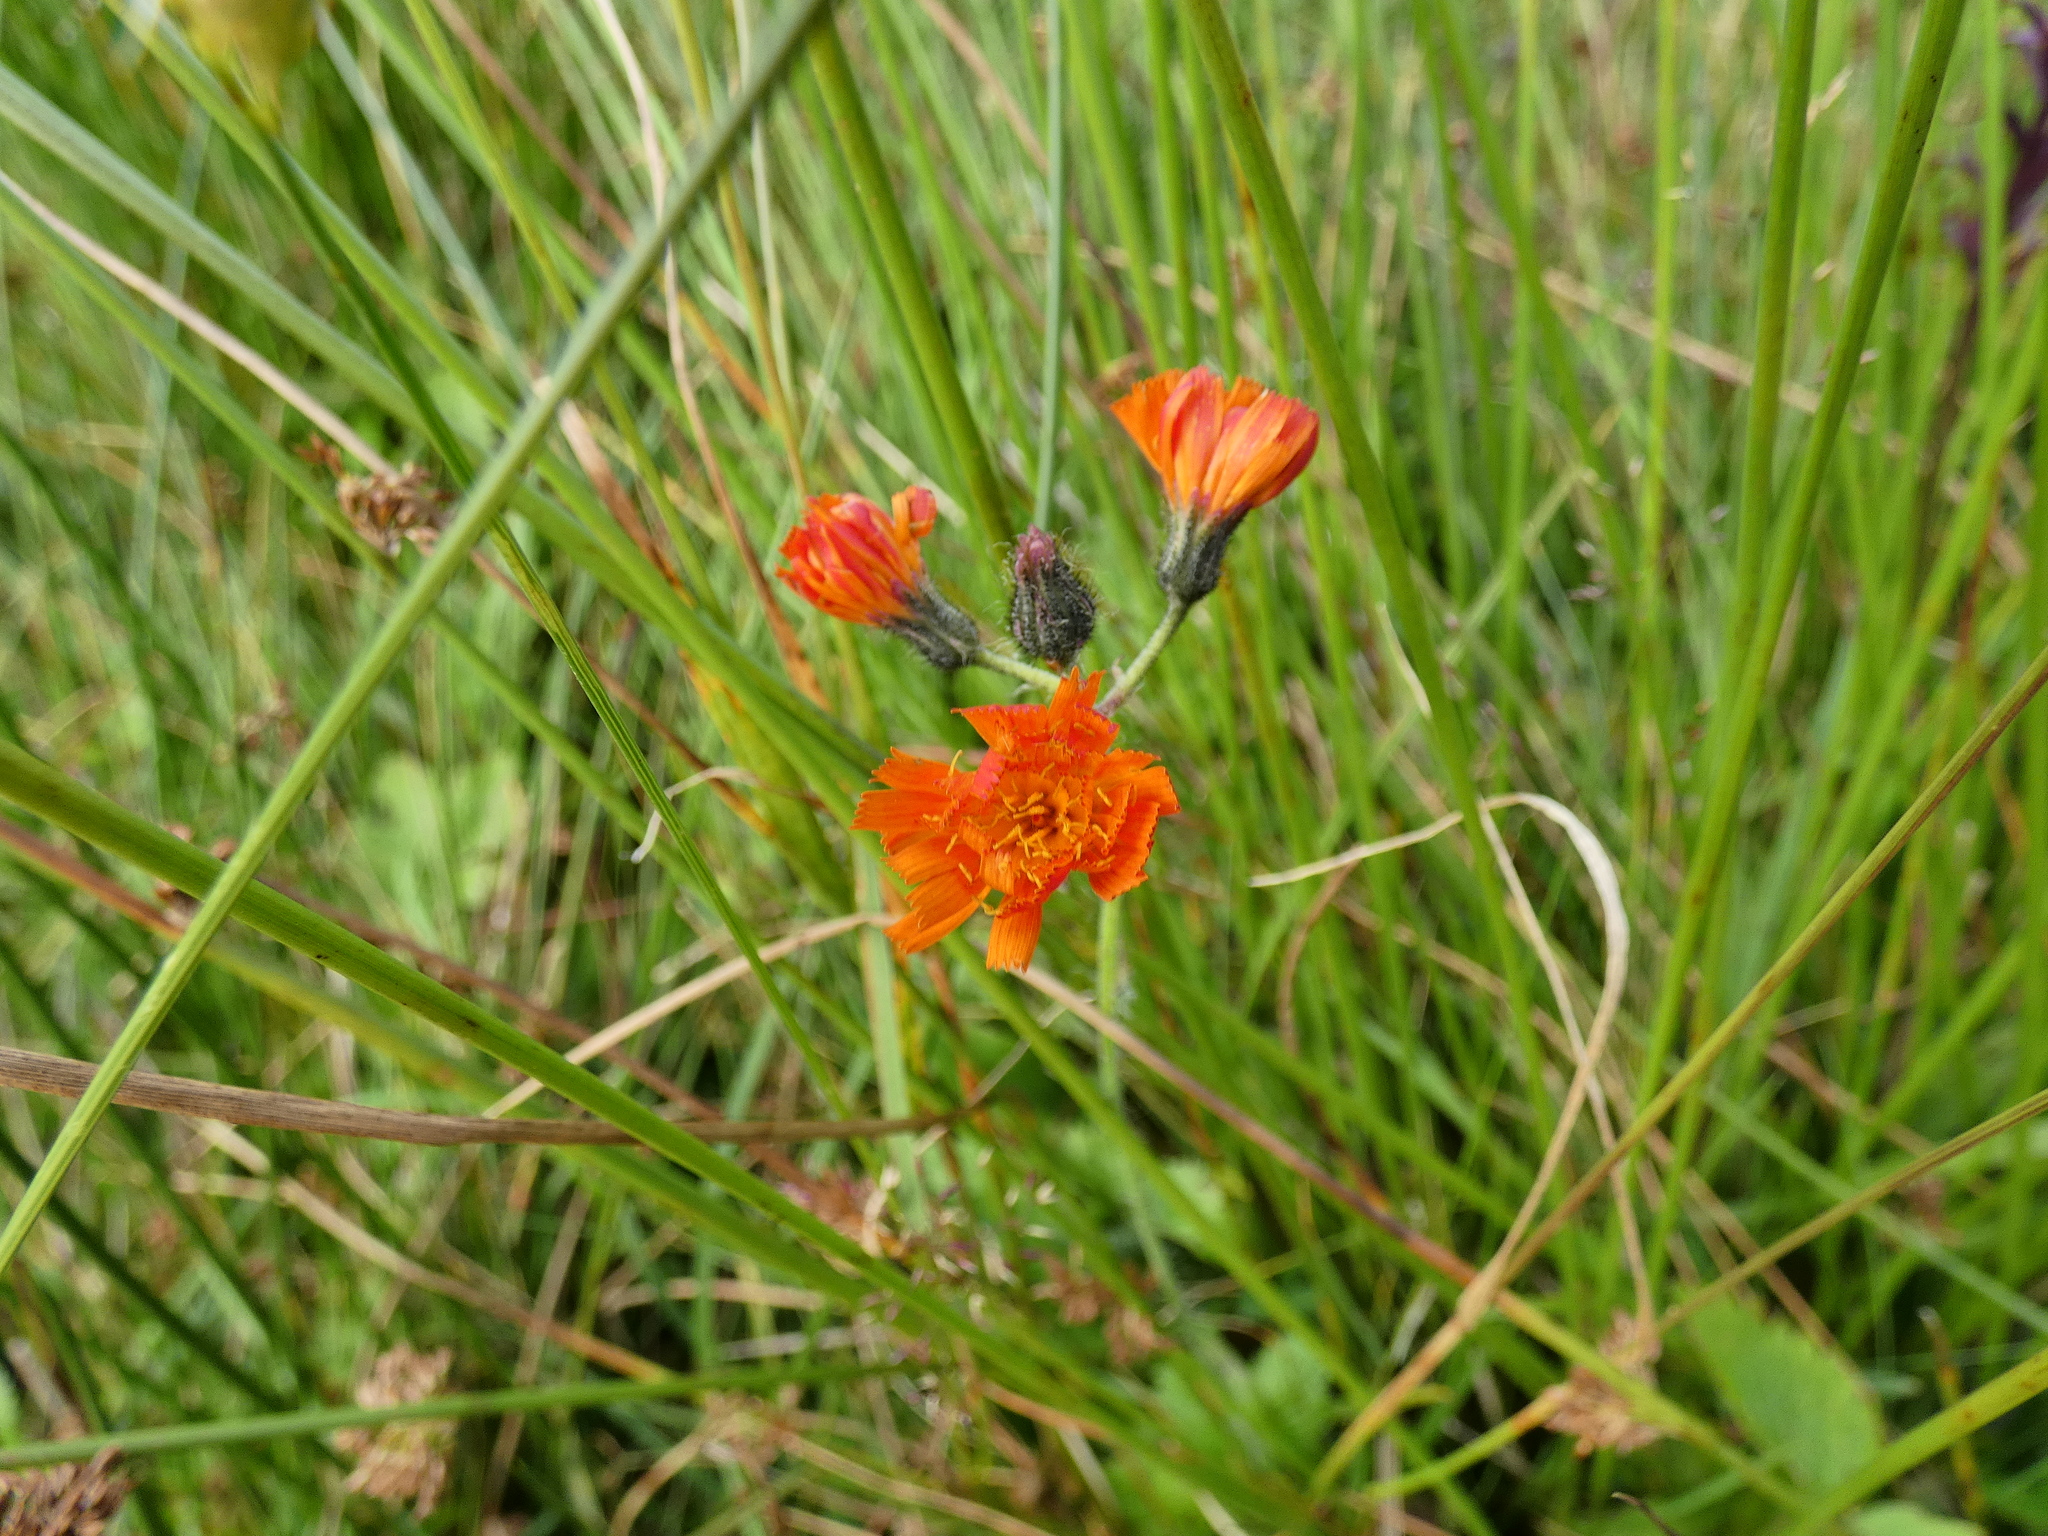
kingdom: Plantae
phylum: Tracheophyta
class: Magnoliopsida
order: Asterales
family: Asteraceae
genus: Pilosella
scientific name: Pilosella aurantiaca
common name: Fox-and-cubs
